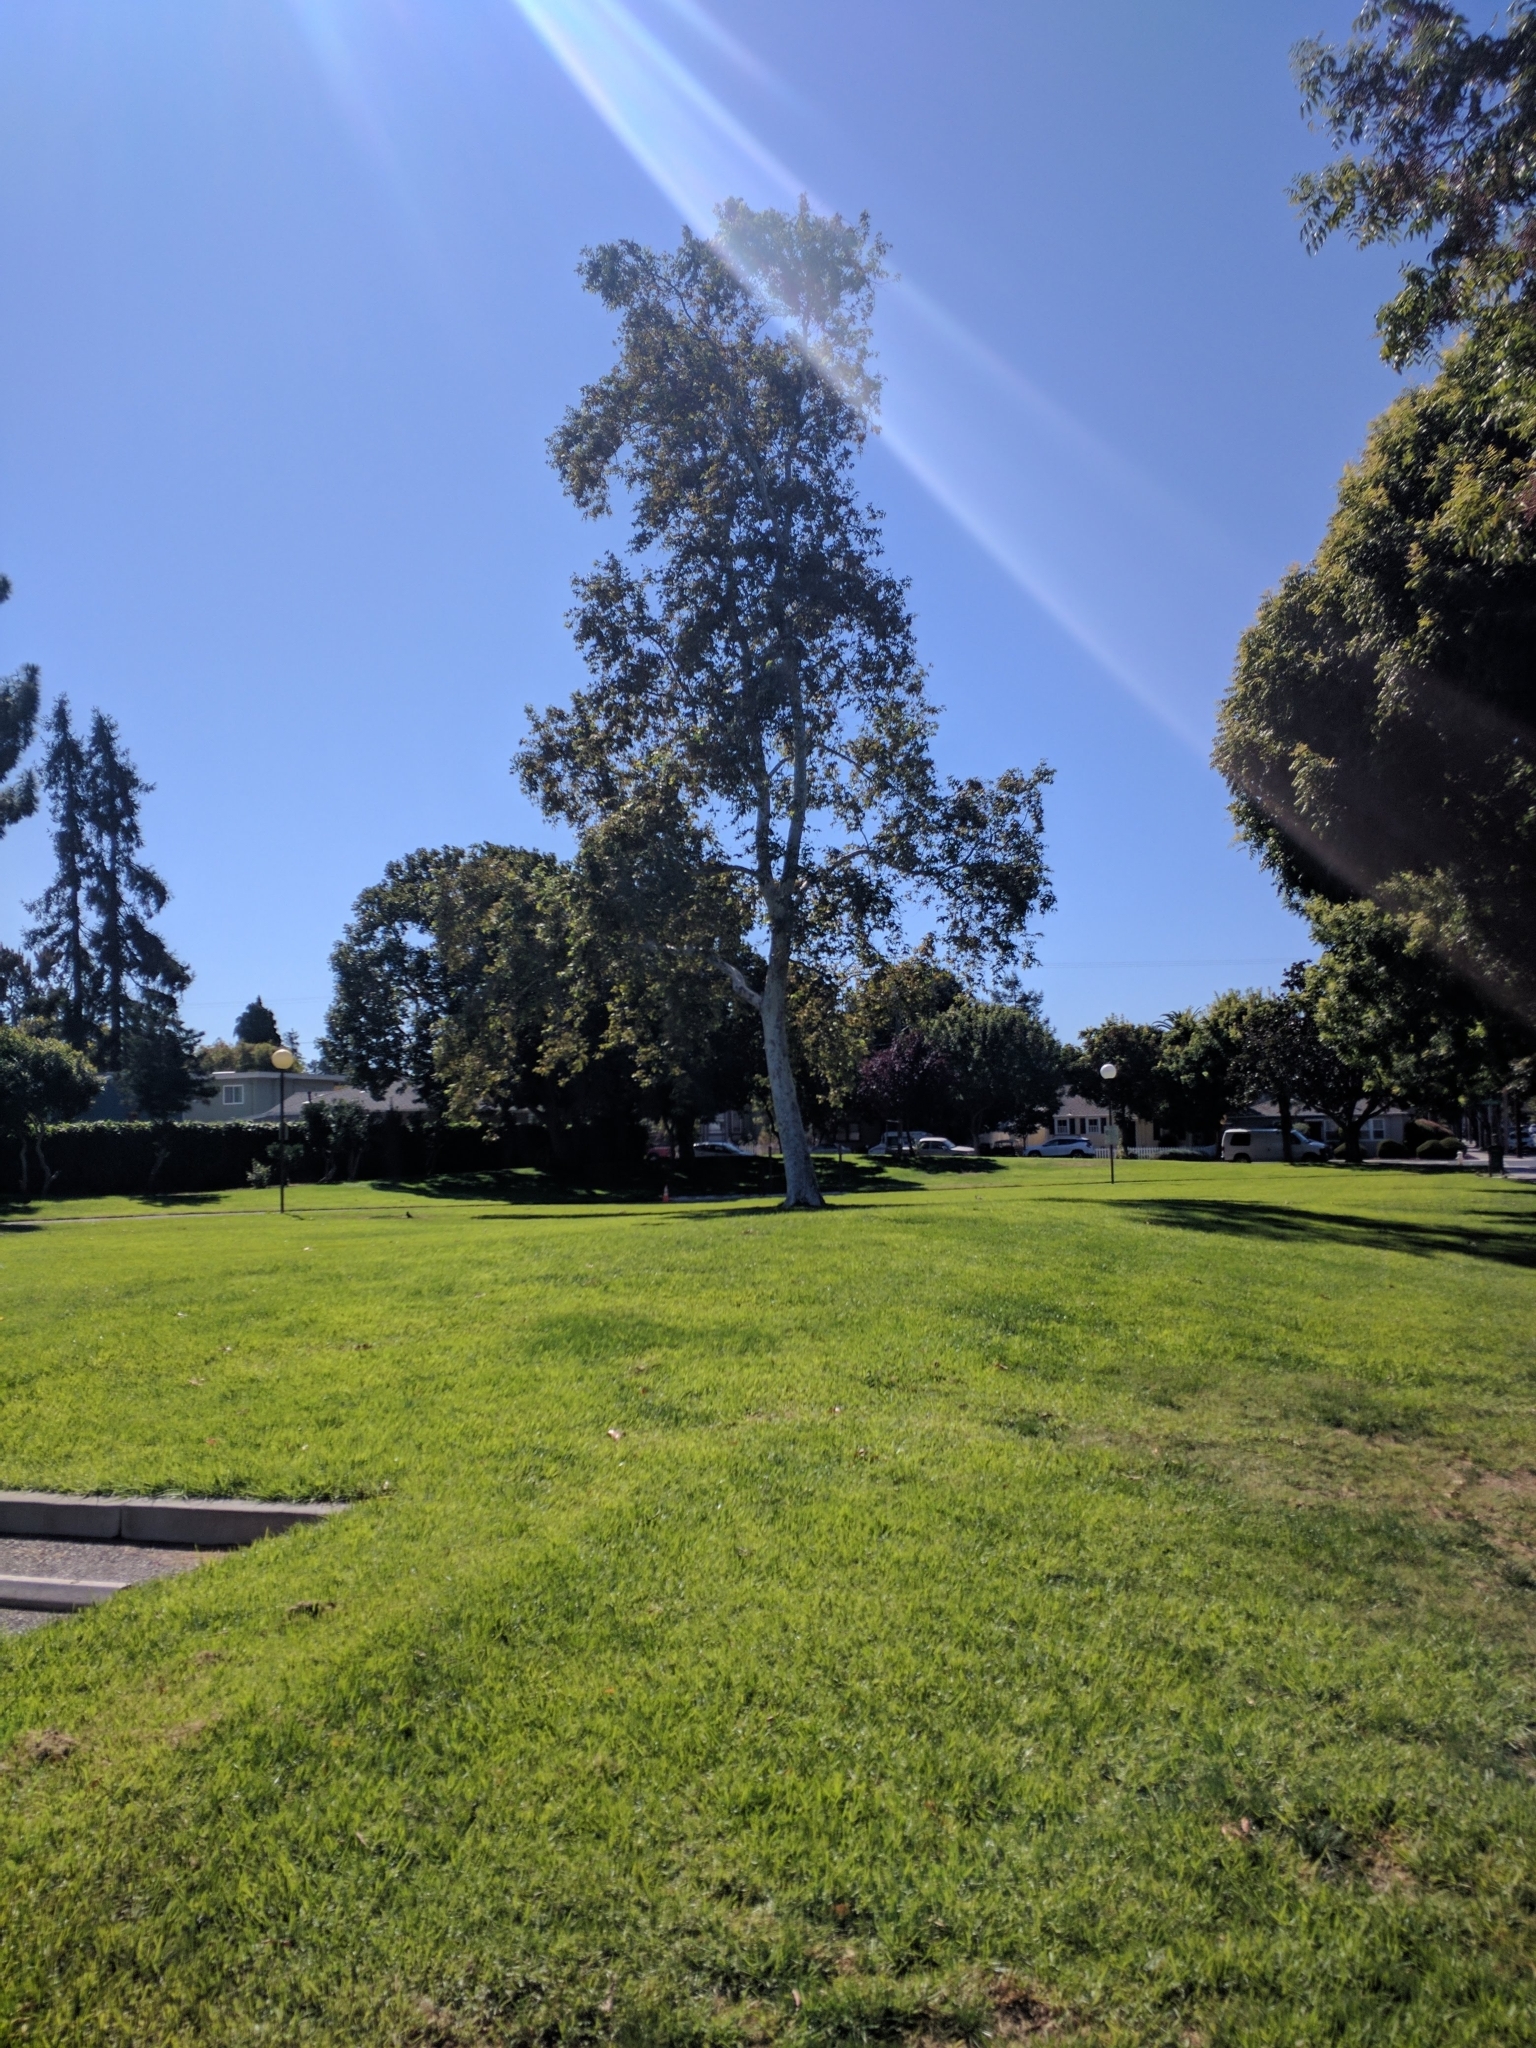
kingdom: Plantae
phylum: Tracheophyta
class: Magnoliopsida
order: Proteales
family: Platanaceae
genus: Platanus
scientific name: Platanus racemosa
